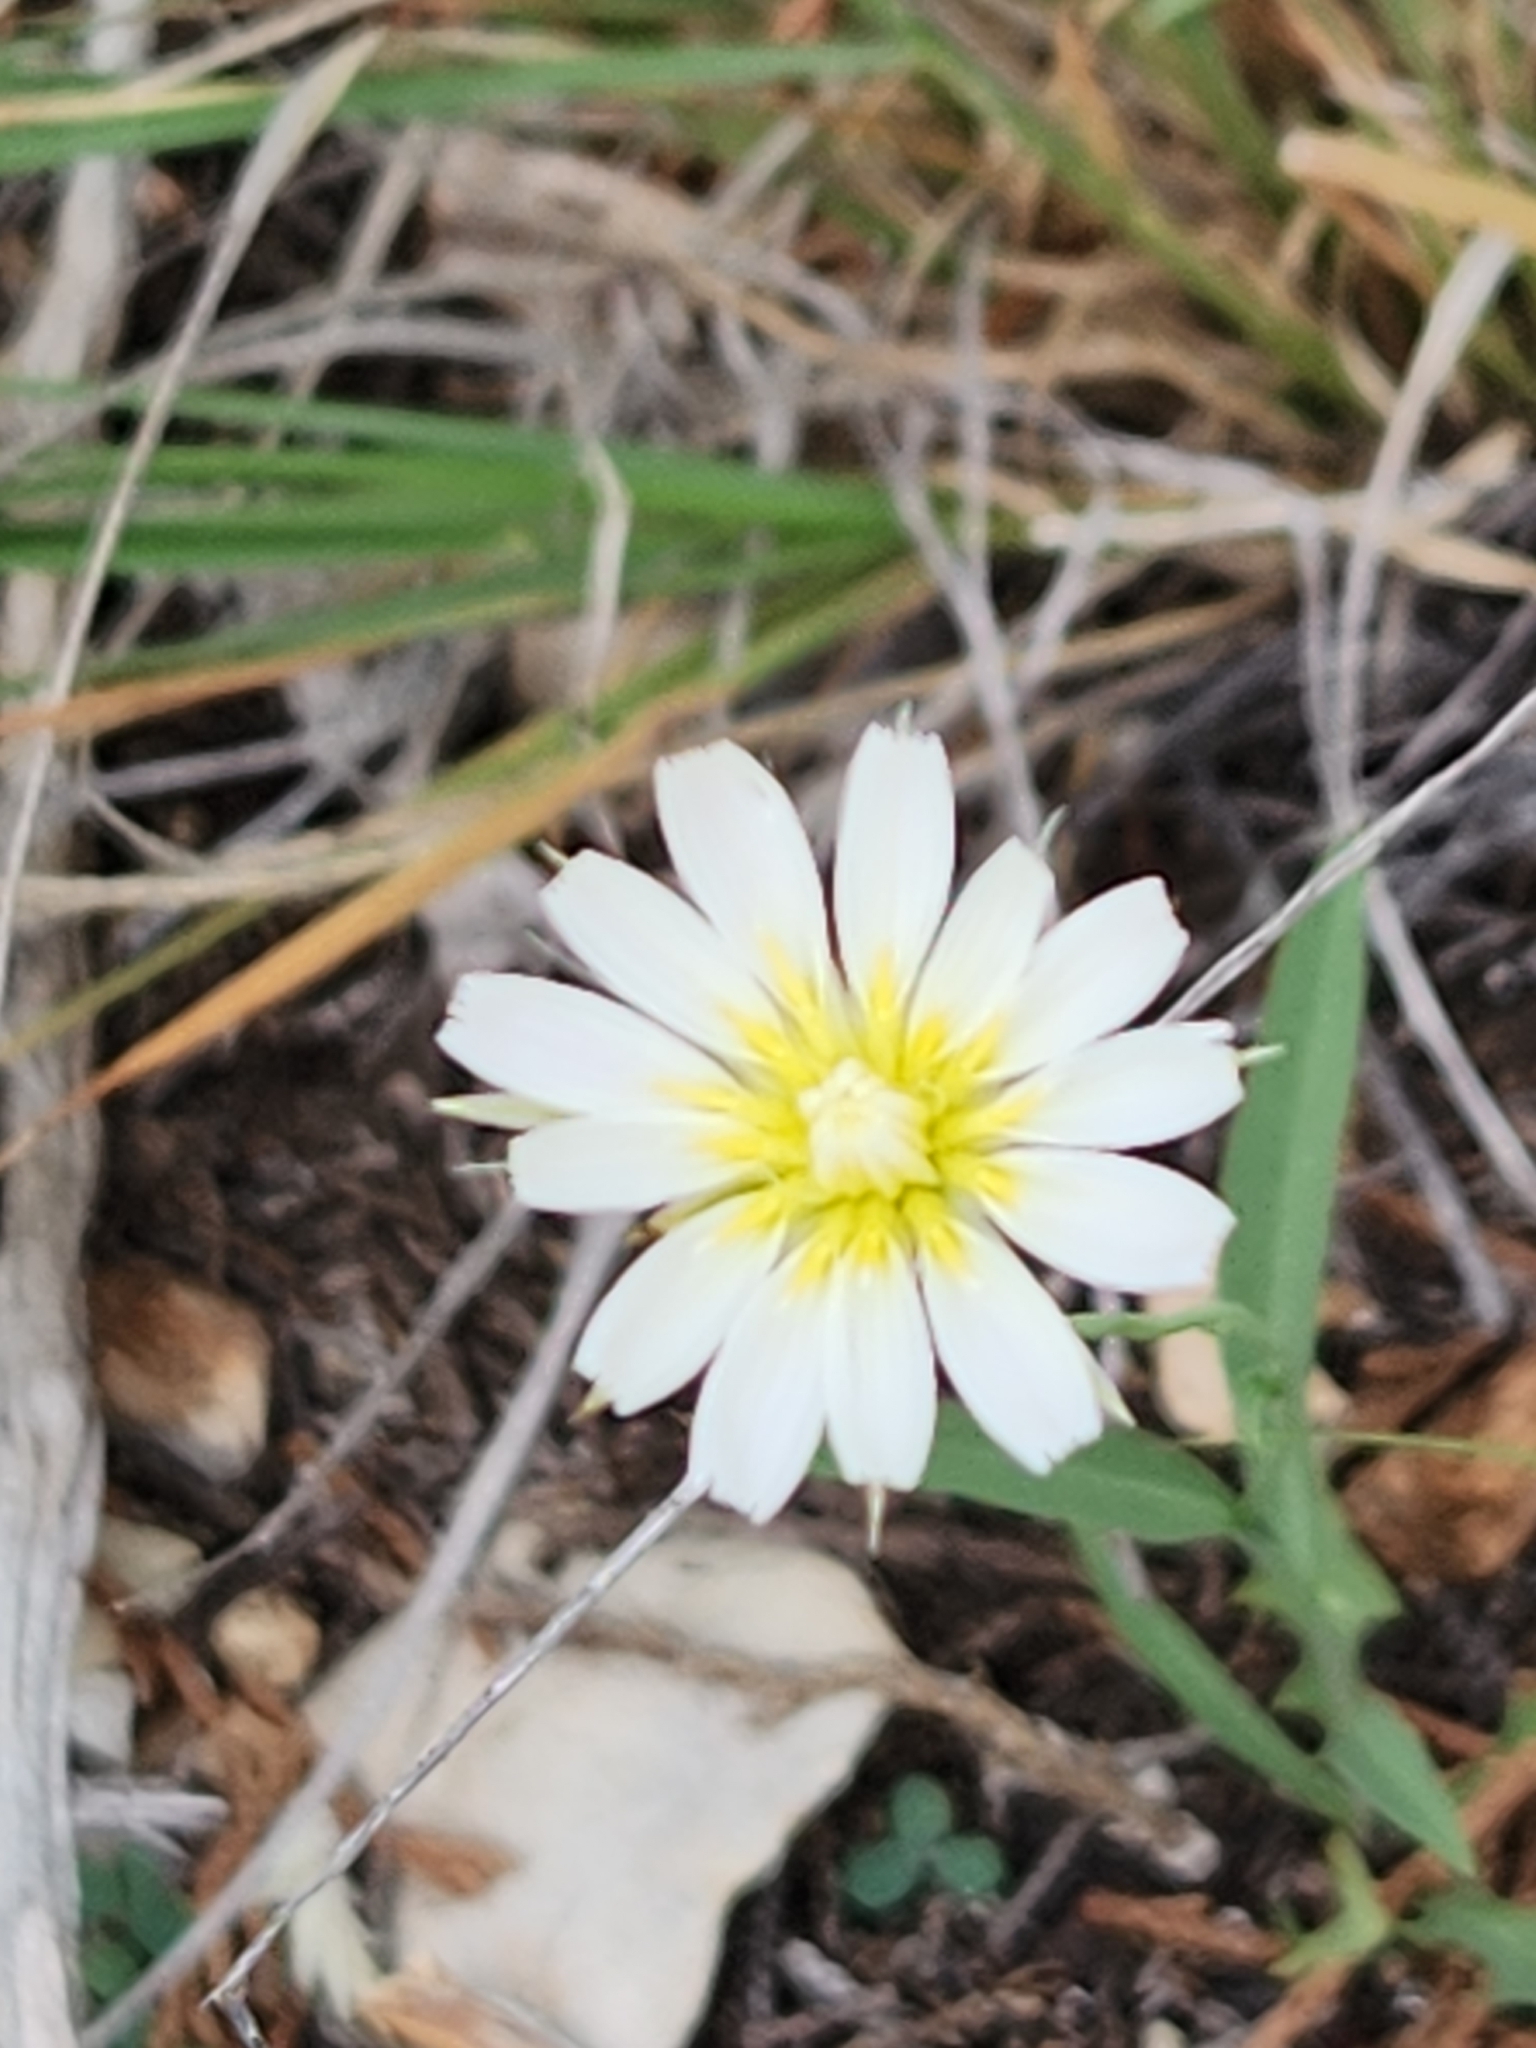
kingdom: Plantae
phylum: Tracheophyta
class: Magnoliopsida
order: Asterales
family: Asteraceae
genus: Pinaropappus
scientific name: Pinaropappus roseus
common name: Rock-lettuce
